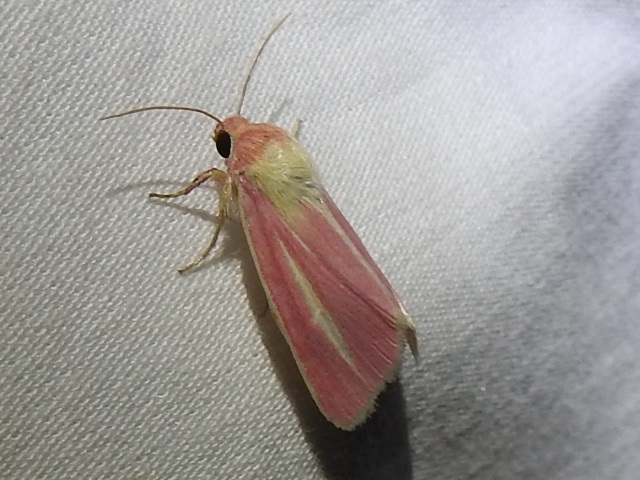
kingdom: Animalia
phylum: Arthropoda
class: Insecta
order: Lepidoptera
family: Noctuidae
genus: Heliocheilus
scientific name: Heliocheilus julia
